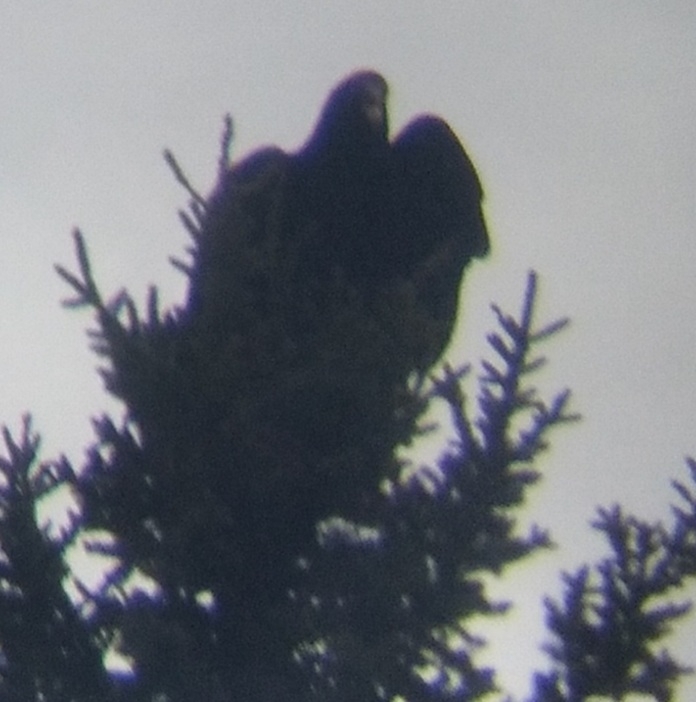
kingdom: Animalia
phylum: Chordata
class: Aves
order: Accipitriformes
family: Cathartidae
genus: Cathartes
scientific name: Cathartes aura
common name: Turkey vulture
